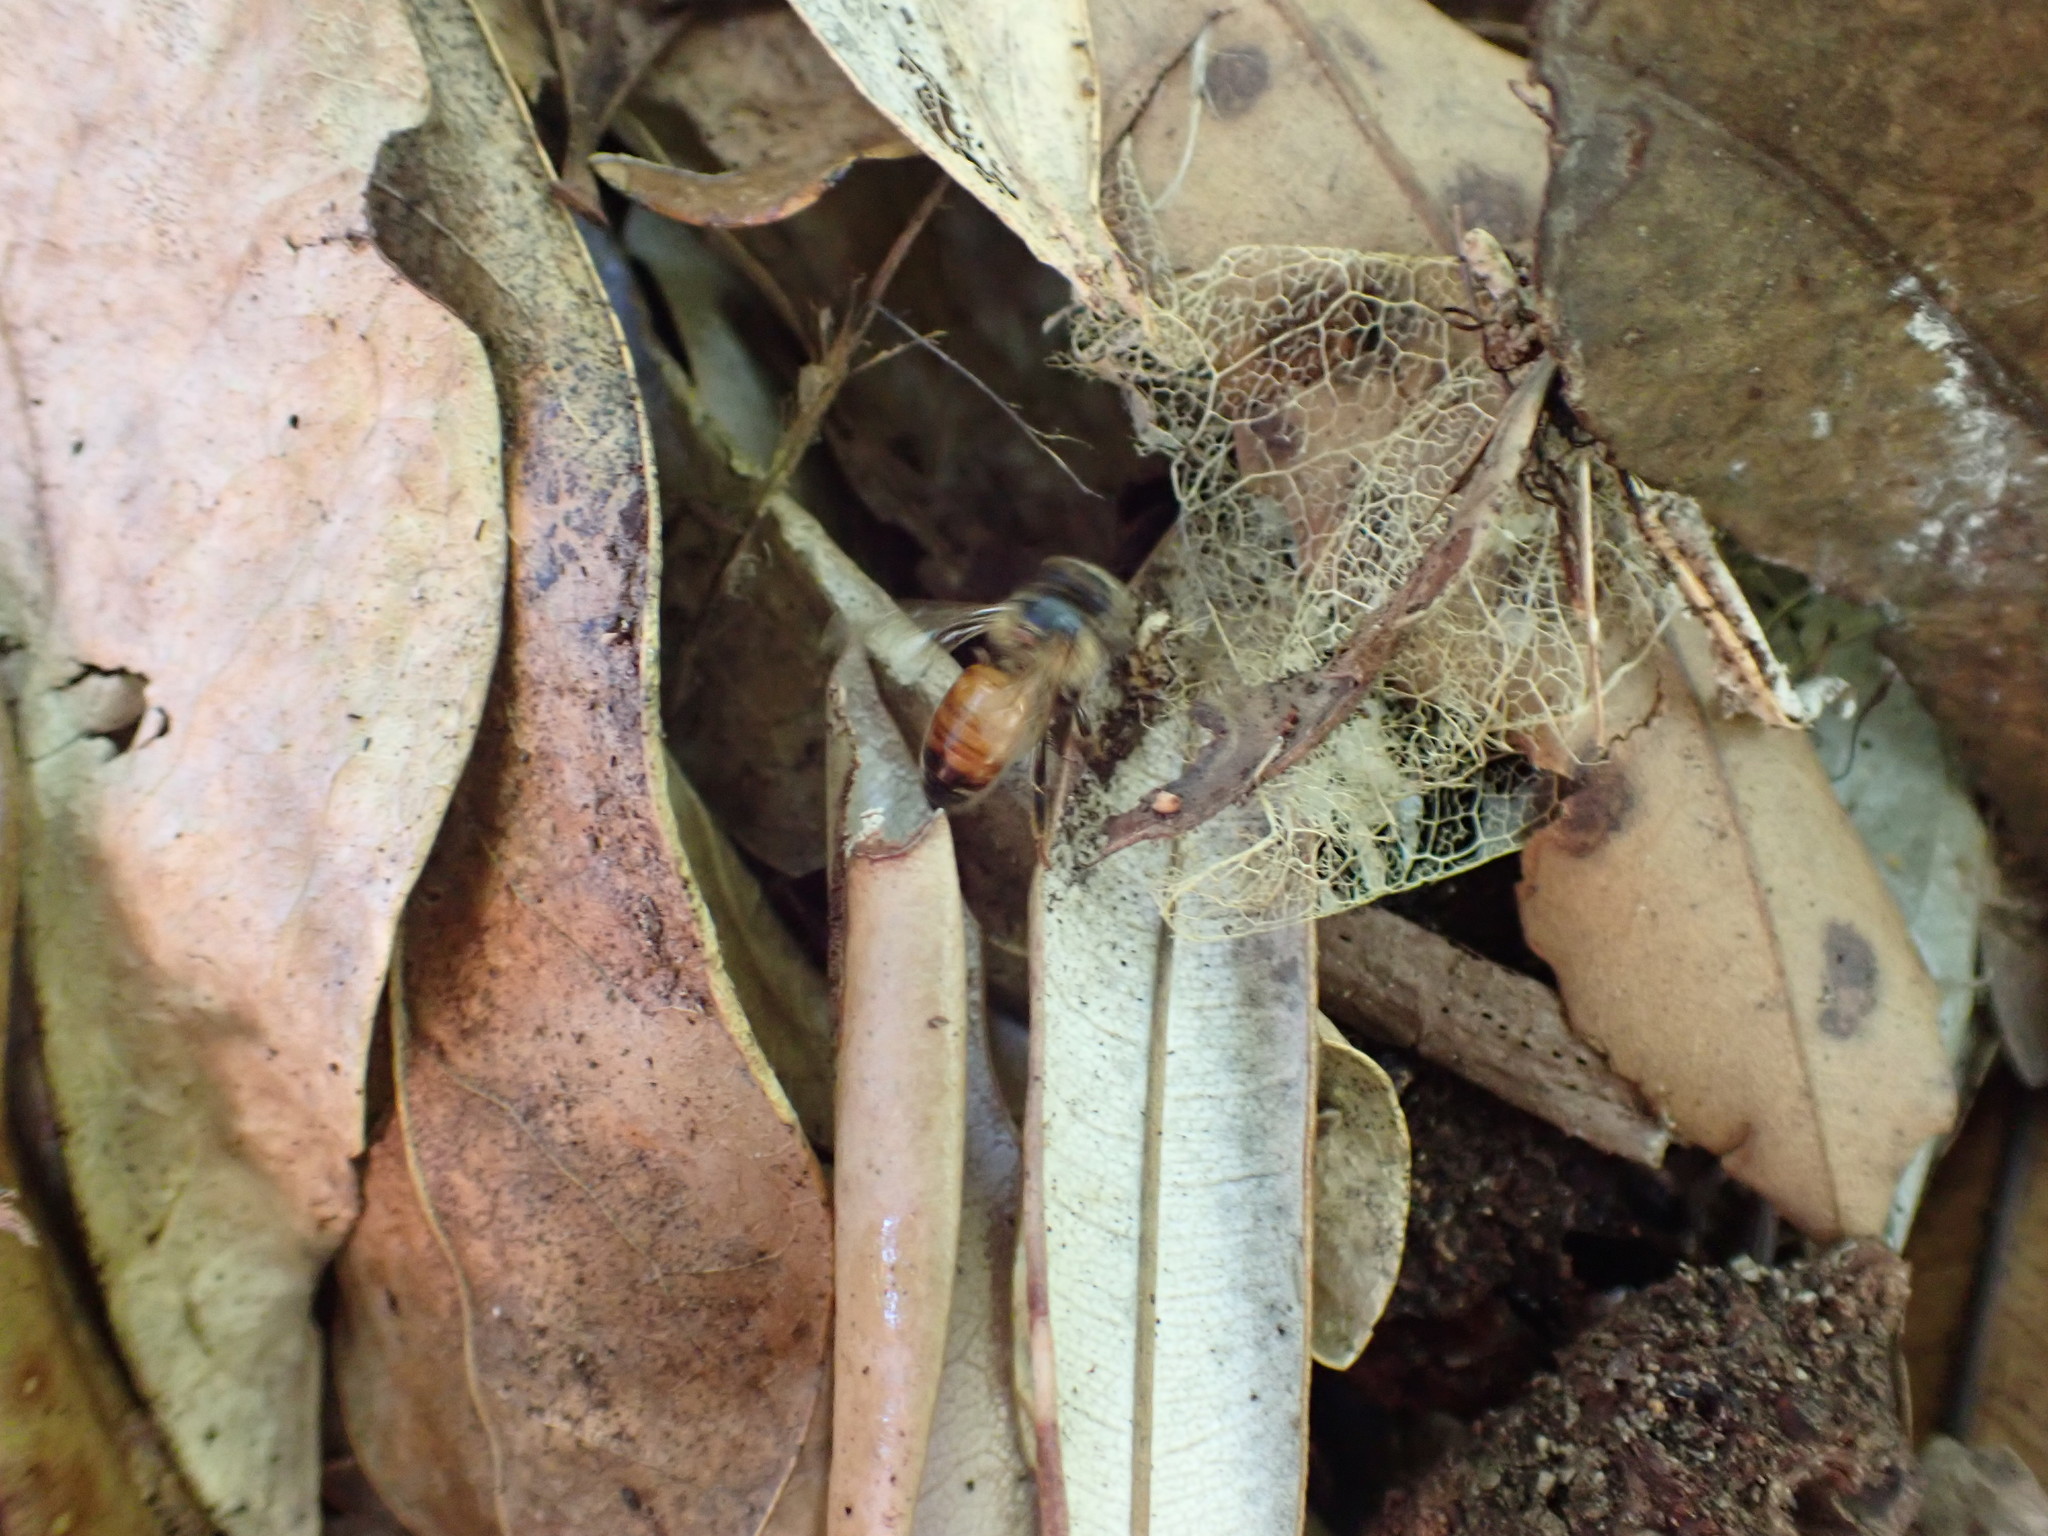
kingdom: Animalia
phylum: Arthropoda
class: Insecta
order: Hymenoptera
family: Apidae
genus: Apis
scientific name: Apis mellifera
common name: Honey bee
